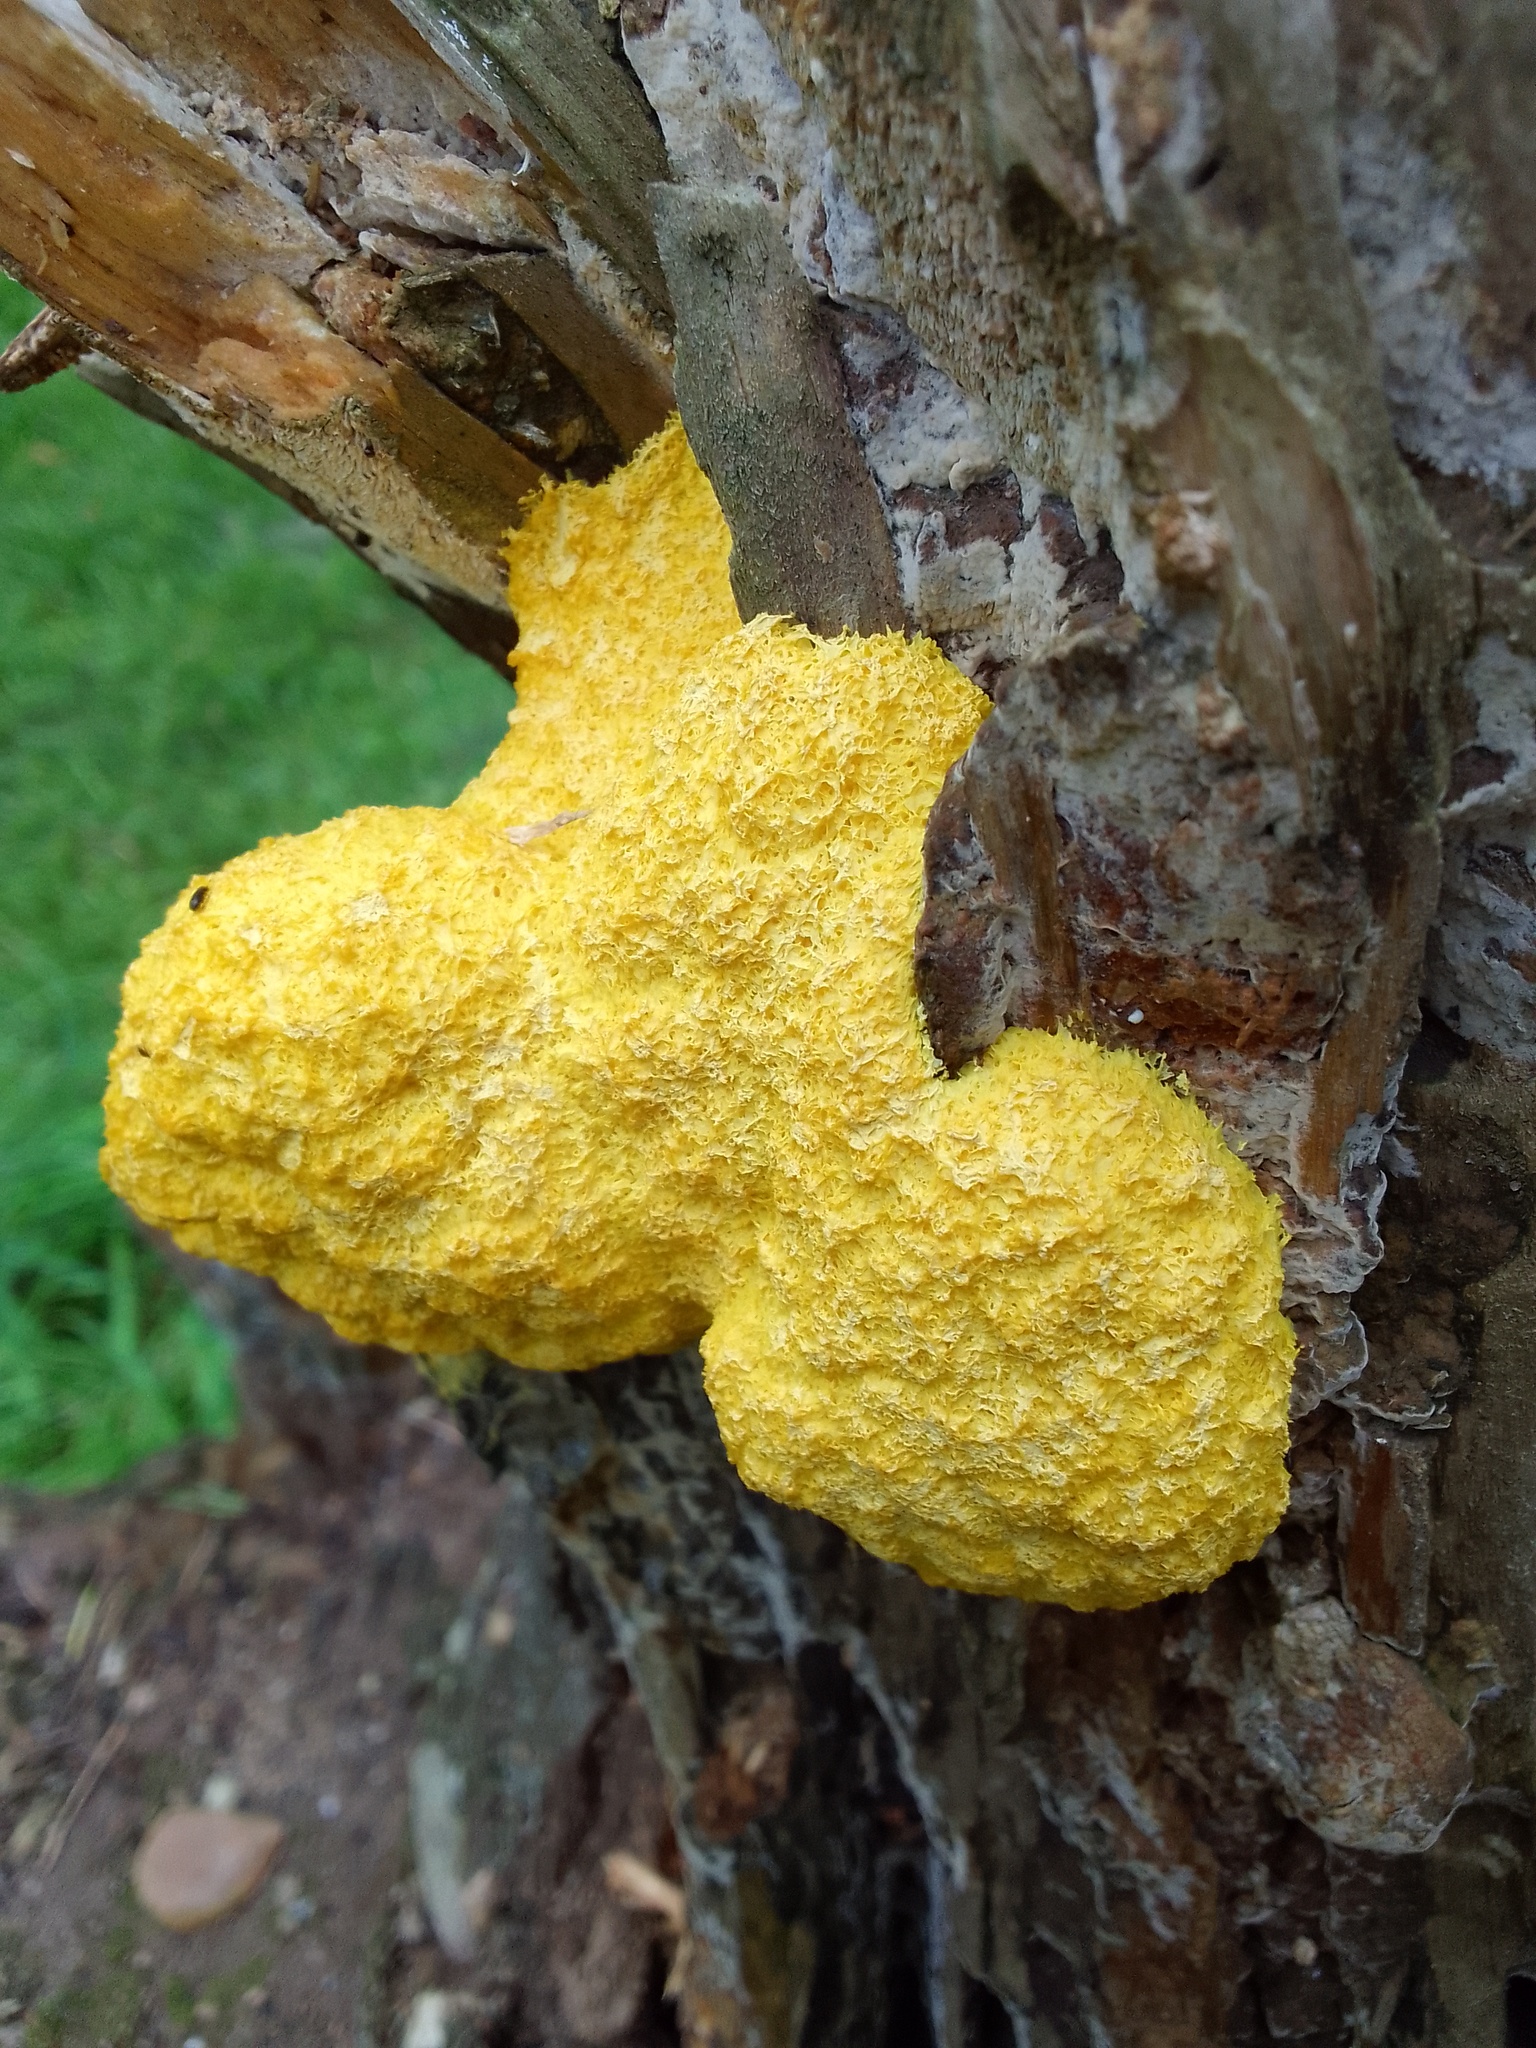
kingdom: Protozoa
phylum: Mycetozoa
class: Myxomycetes
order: Physarales
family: Physaraceae
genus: Fuligo
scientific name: Fuligo septica
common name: Dog vomit slime mold
